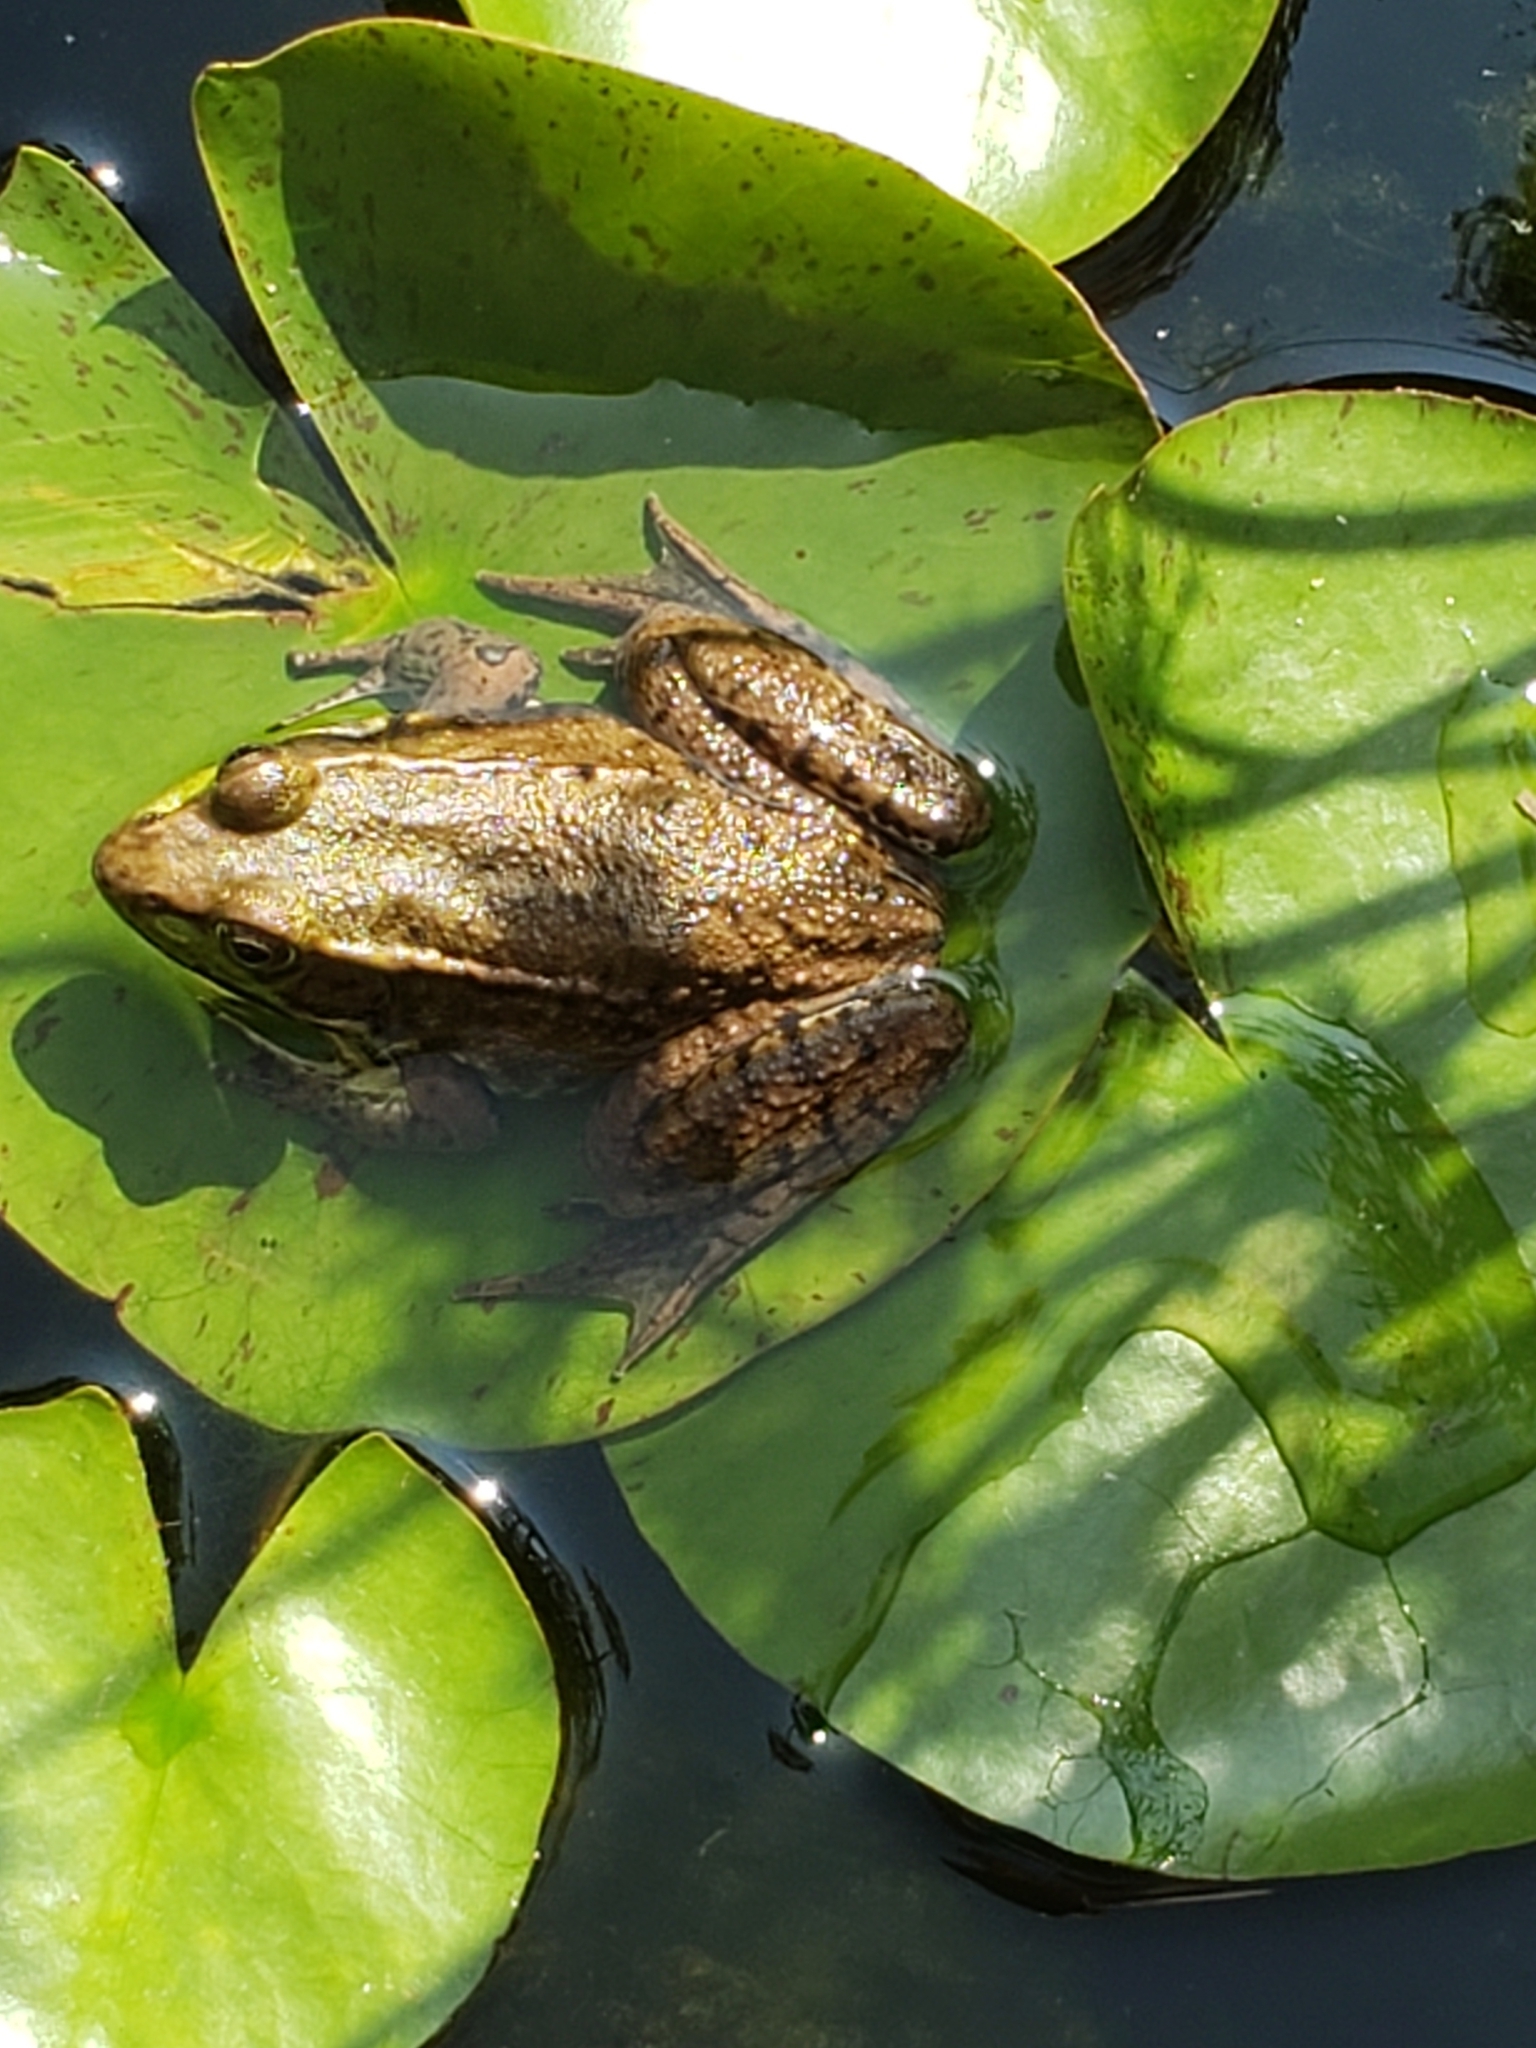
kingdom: Animalia
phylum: Chordata
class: Amphibia
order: Anura
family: Ranidae
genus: Lithobates
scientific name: Lithobates clamitans
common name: Green frog
